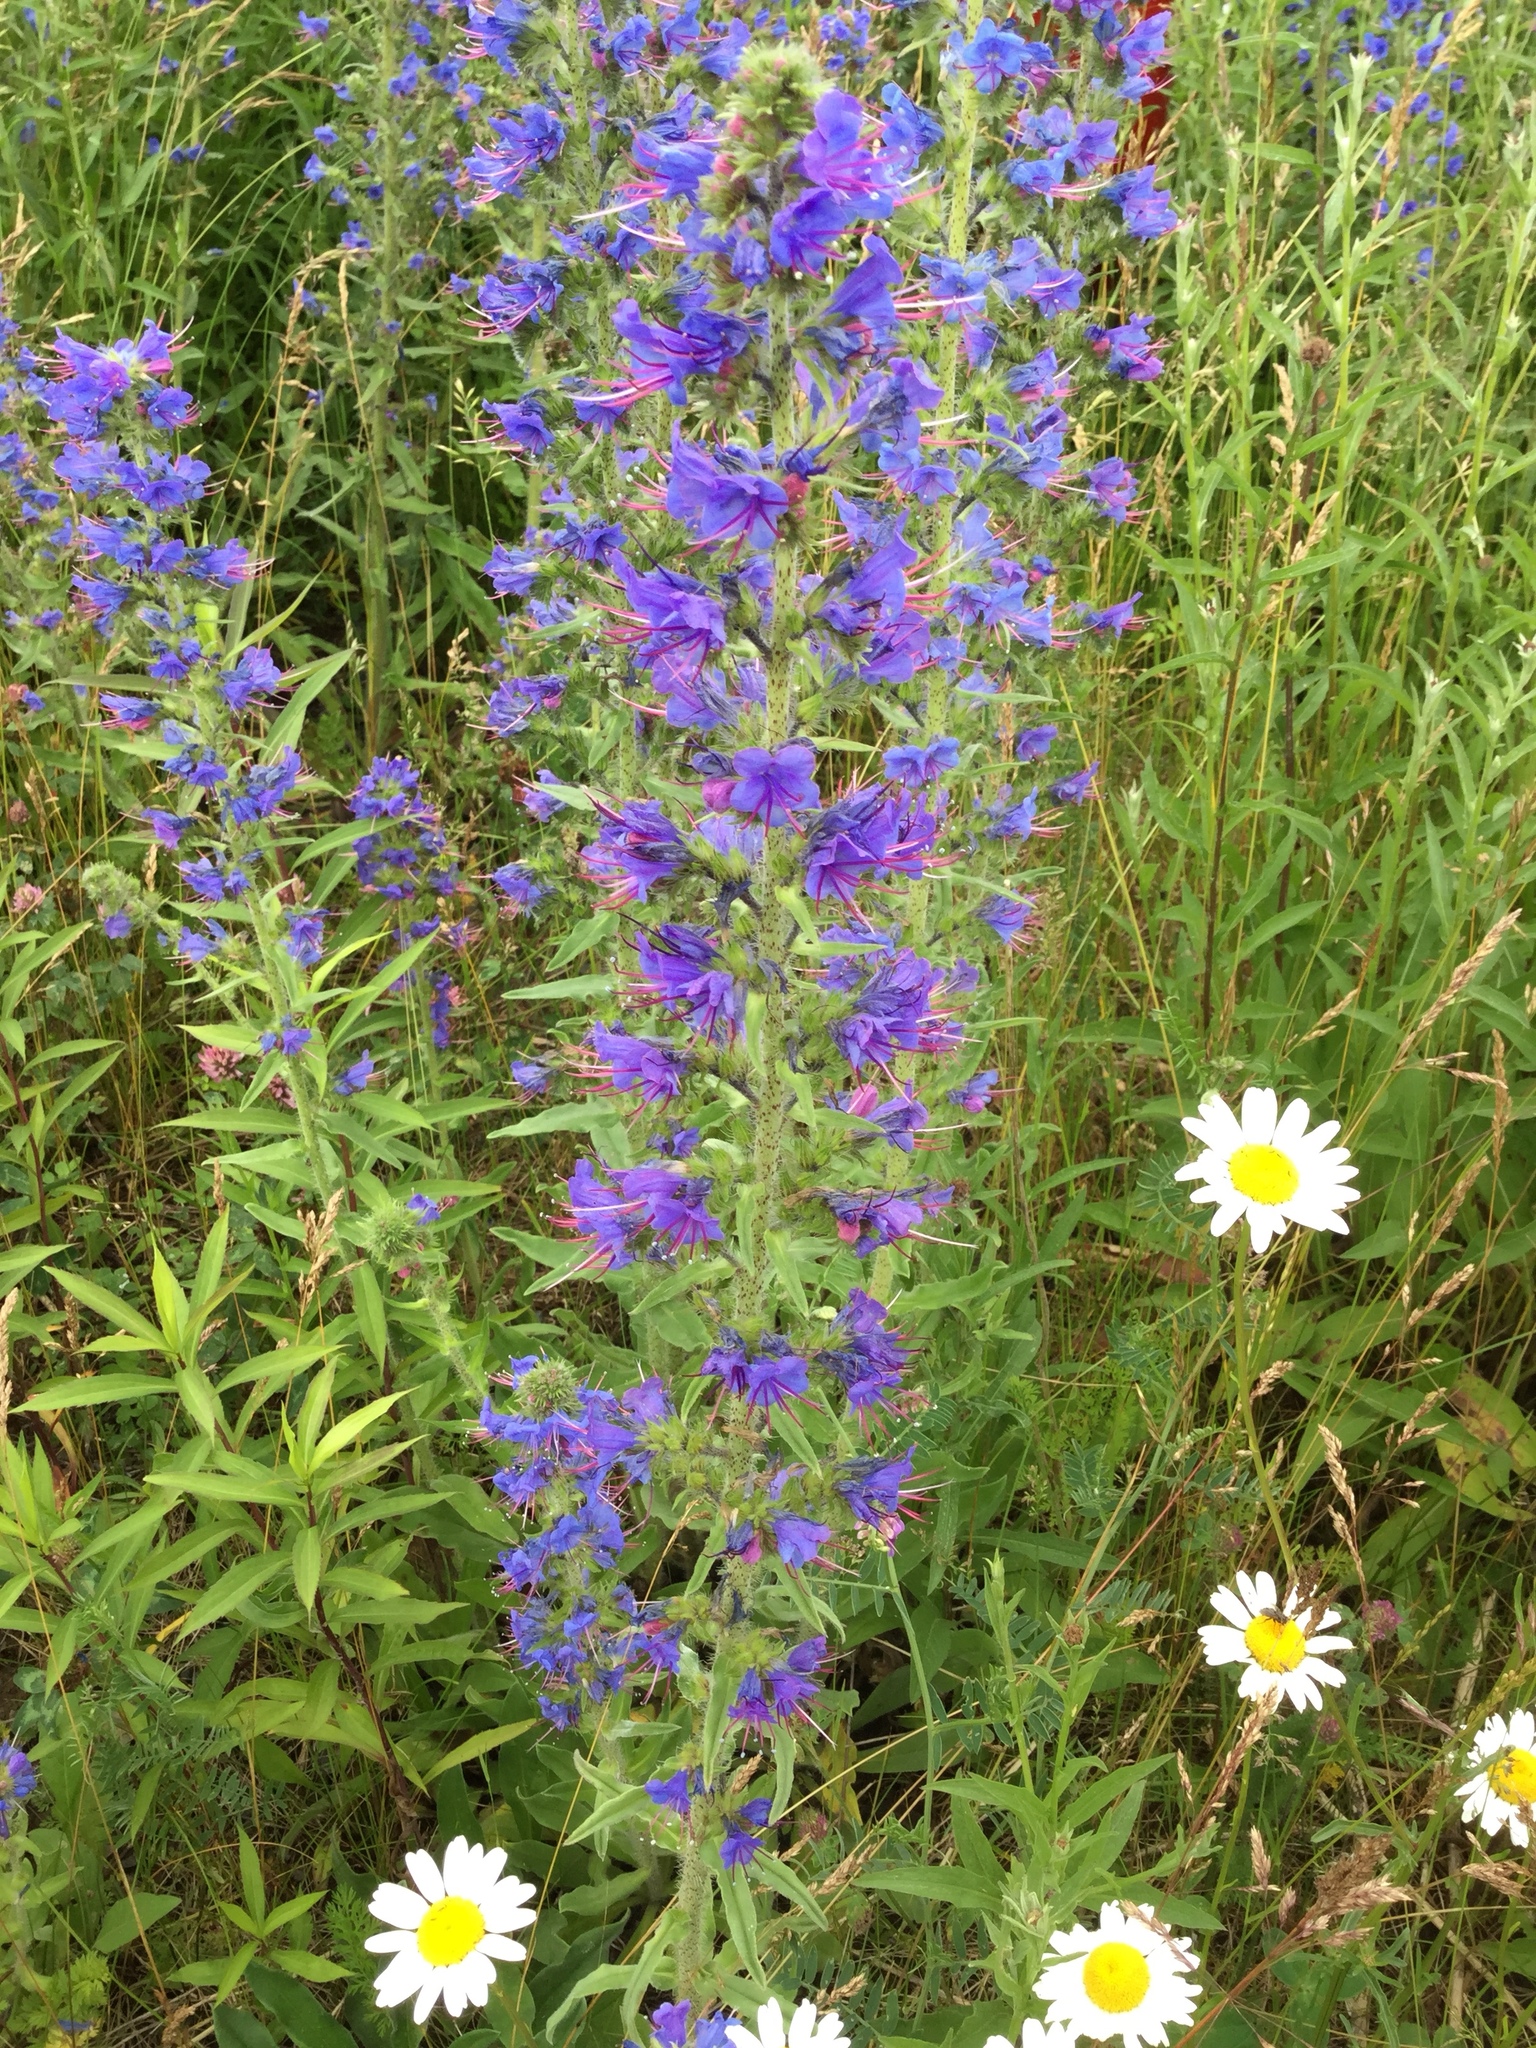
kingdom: Plantae
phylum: Tracheophyta
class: Magnoliopsida
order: Boraginales
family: Boraginaceae
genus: Echium
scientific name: Echium vulgare
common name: Common viper's bugloss
